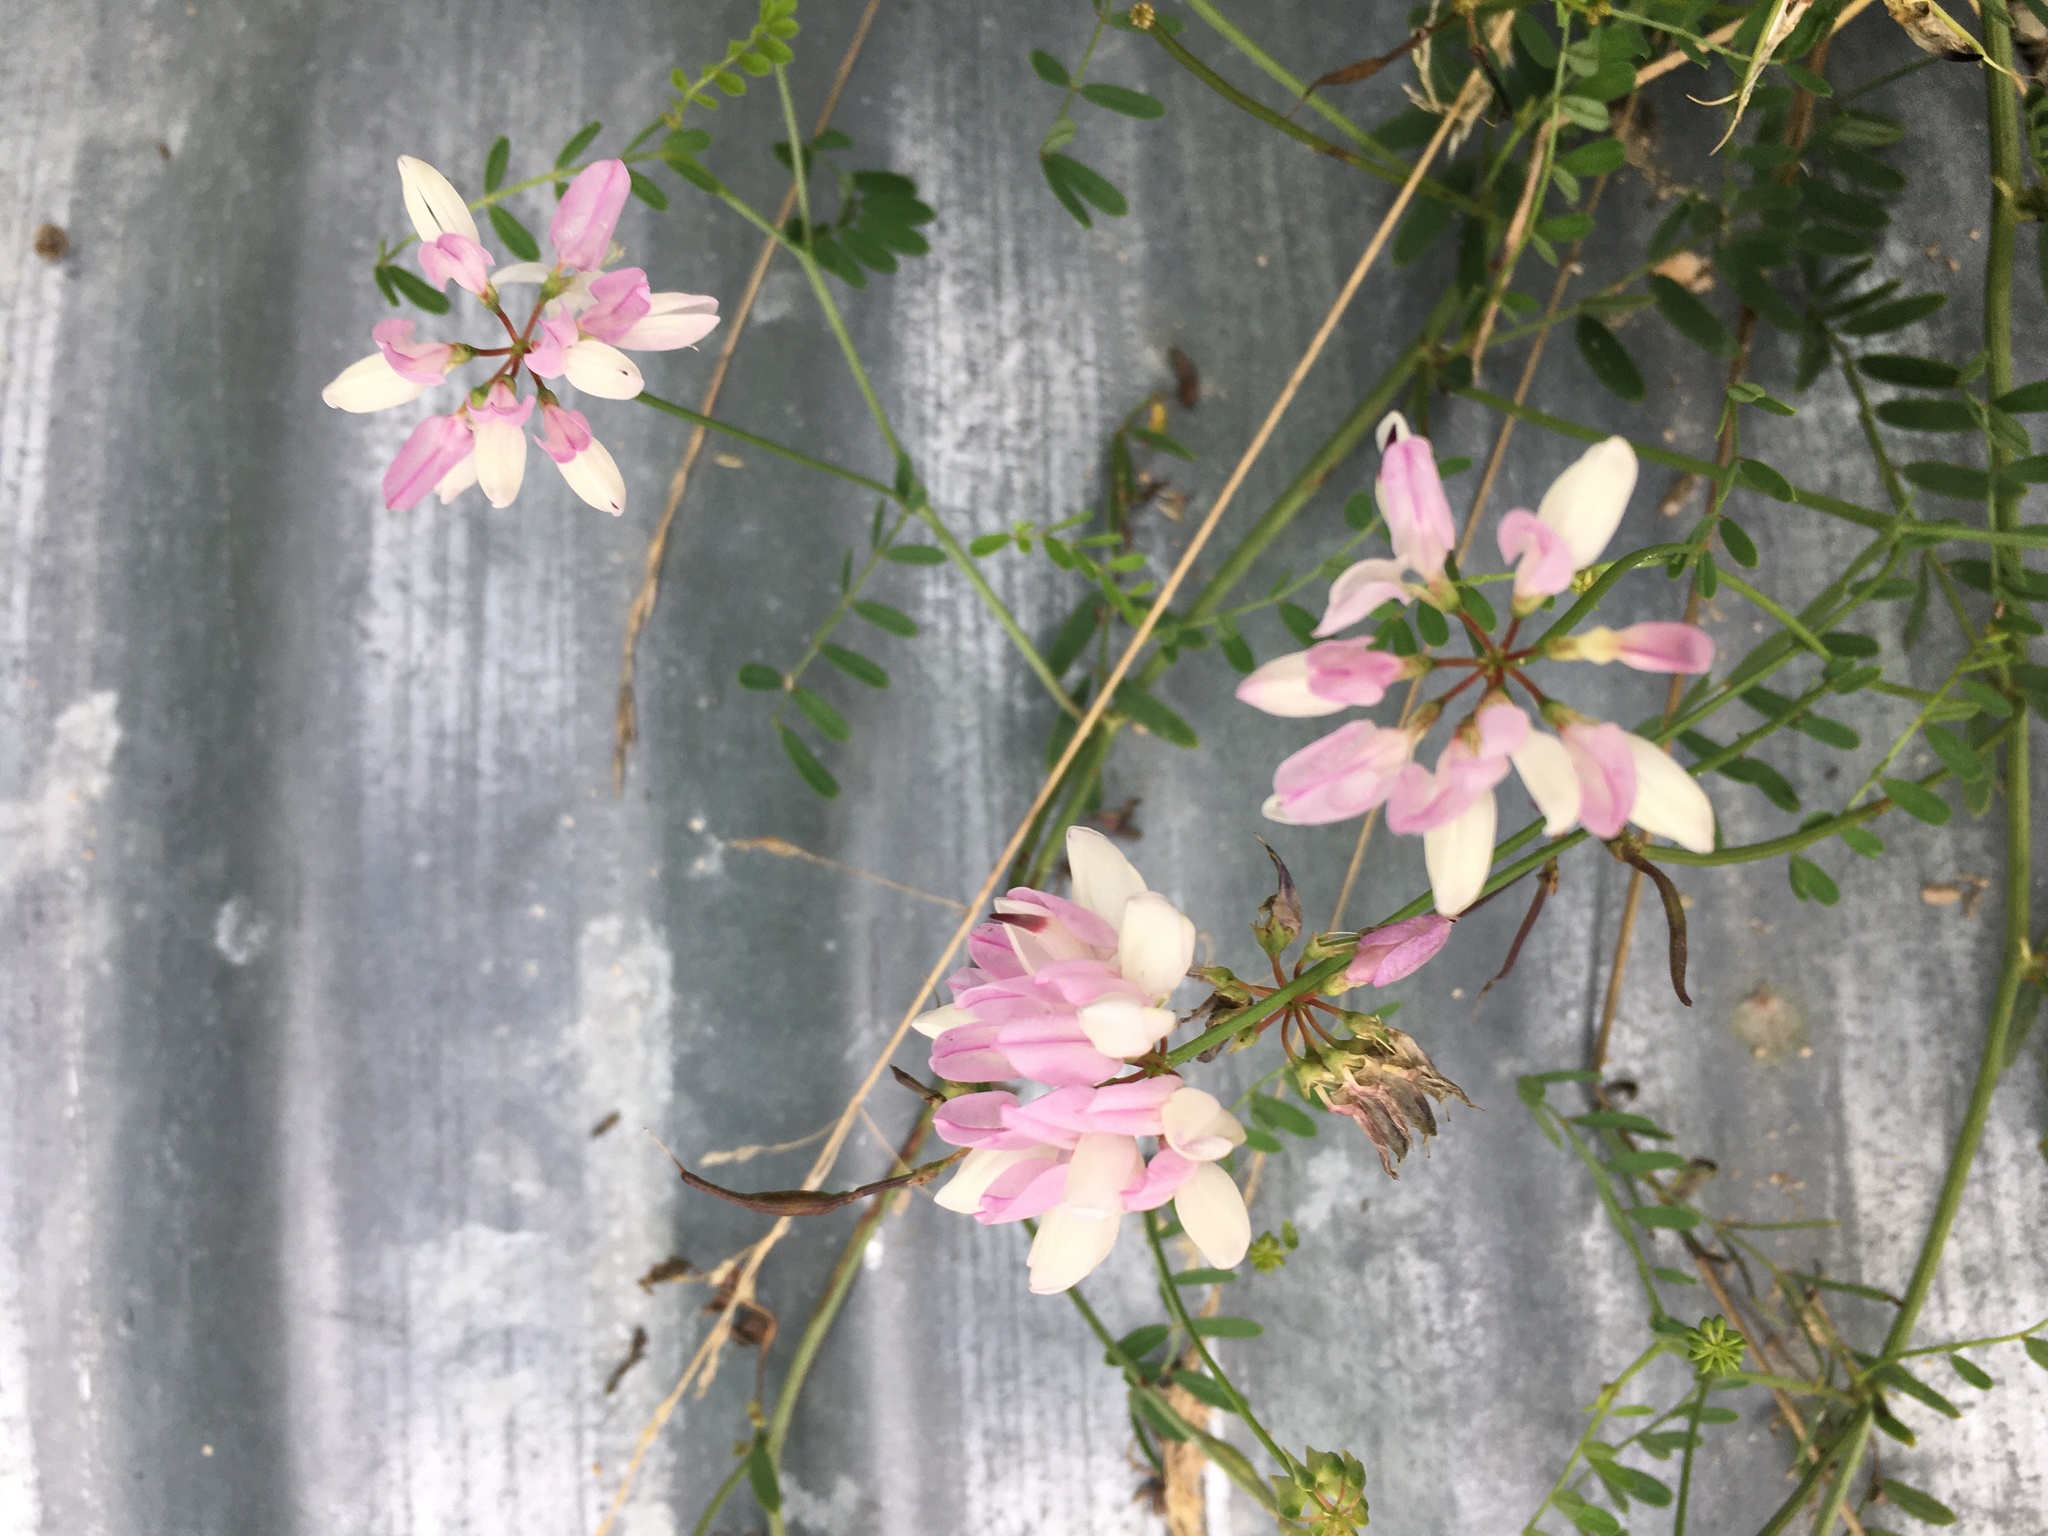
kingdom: Plantae
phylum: Tracheophyta
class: Magnoliopsida
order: Fabales
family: Fabaceae
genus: Coronilla
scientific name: Coronilla varia
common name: Crownvetch
